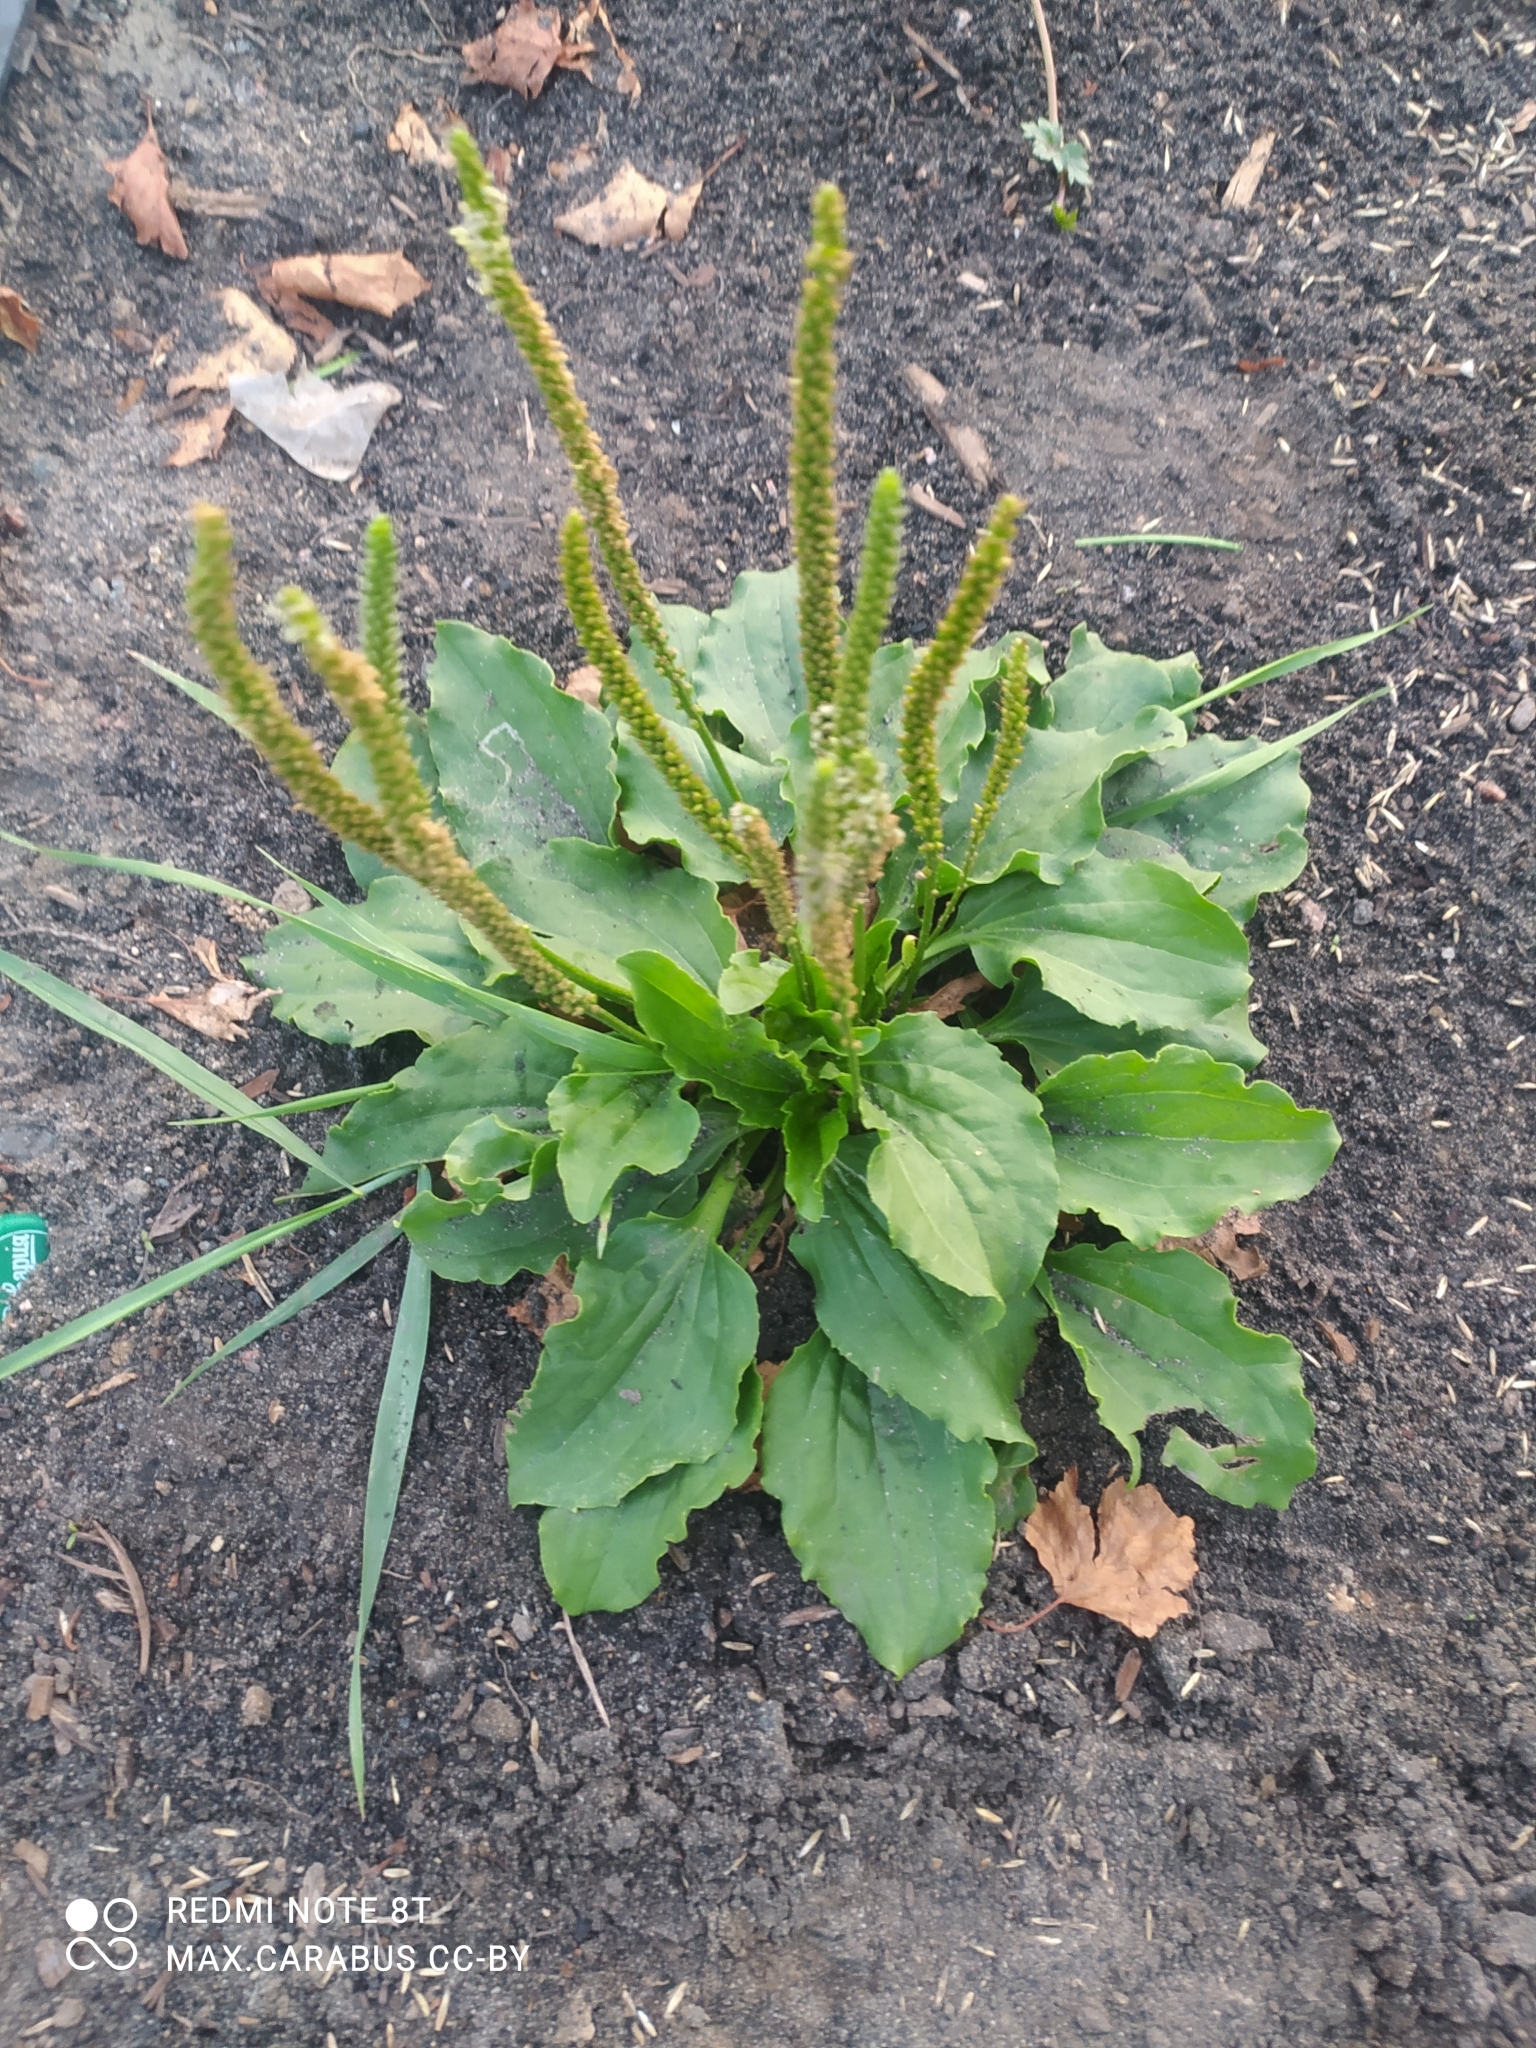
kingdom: Plantae
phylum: Tracheophyta
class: Magnoliopsida
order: Lamiales
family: Plantaginaceae
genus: Plantago
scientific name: Plantago major
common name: Common plantain
